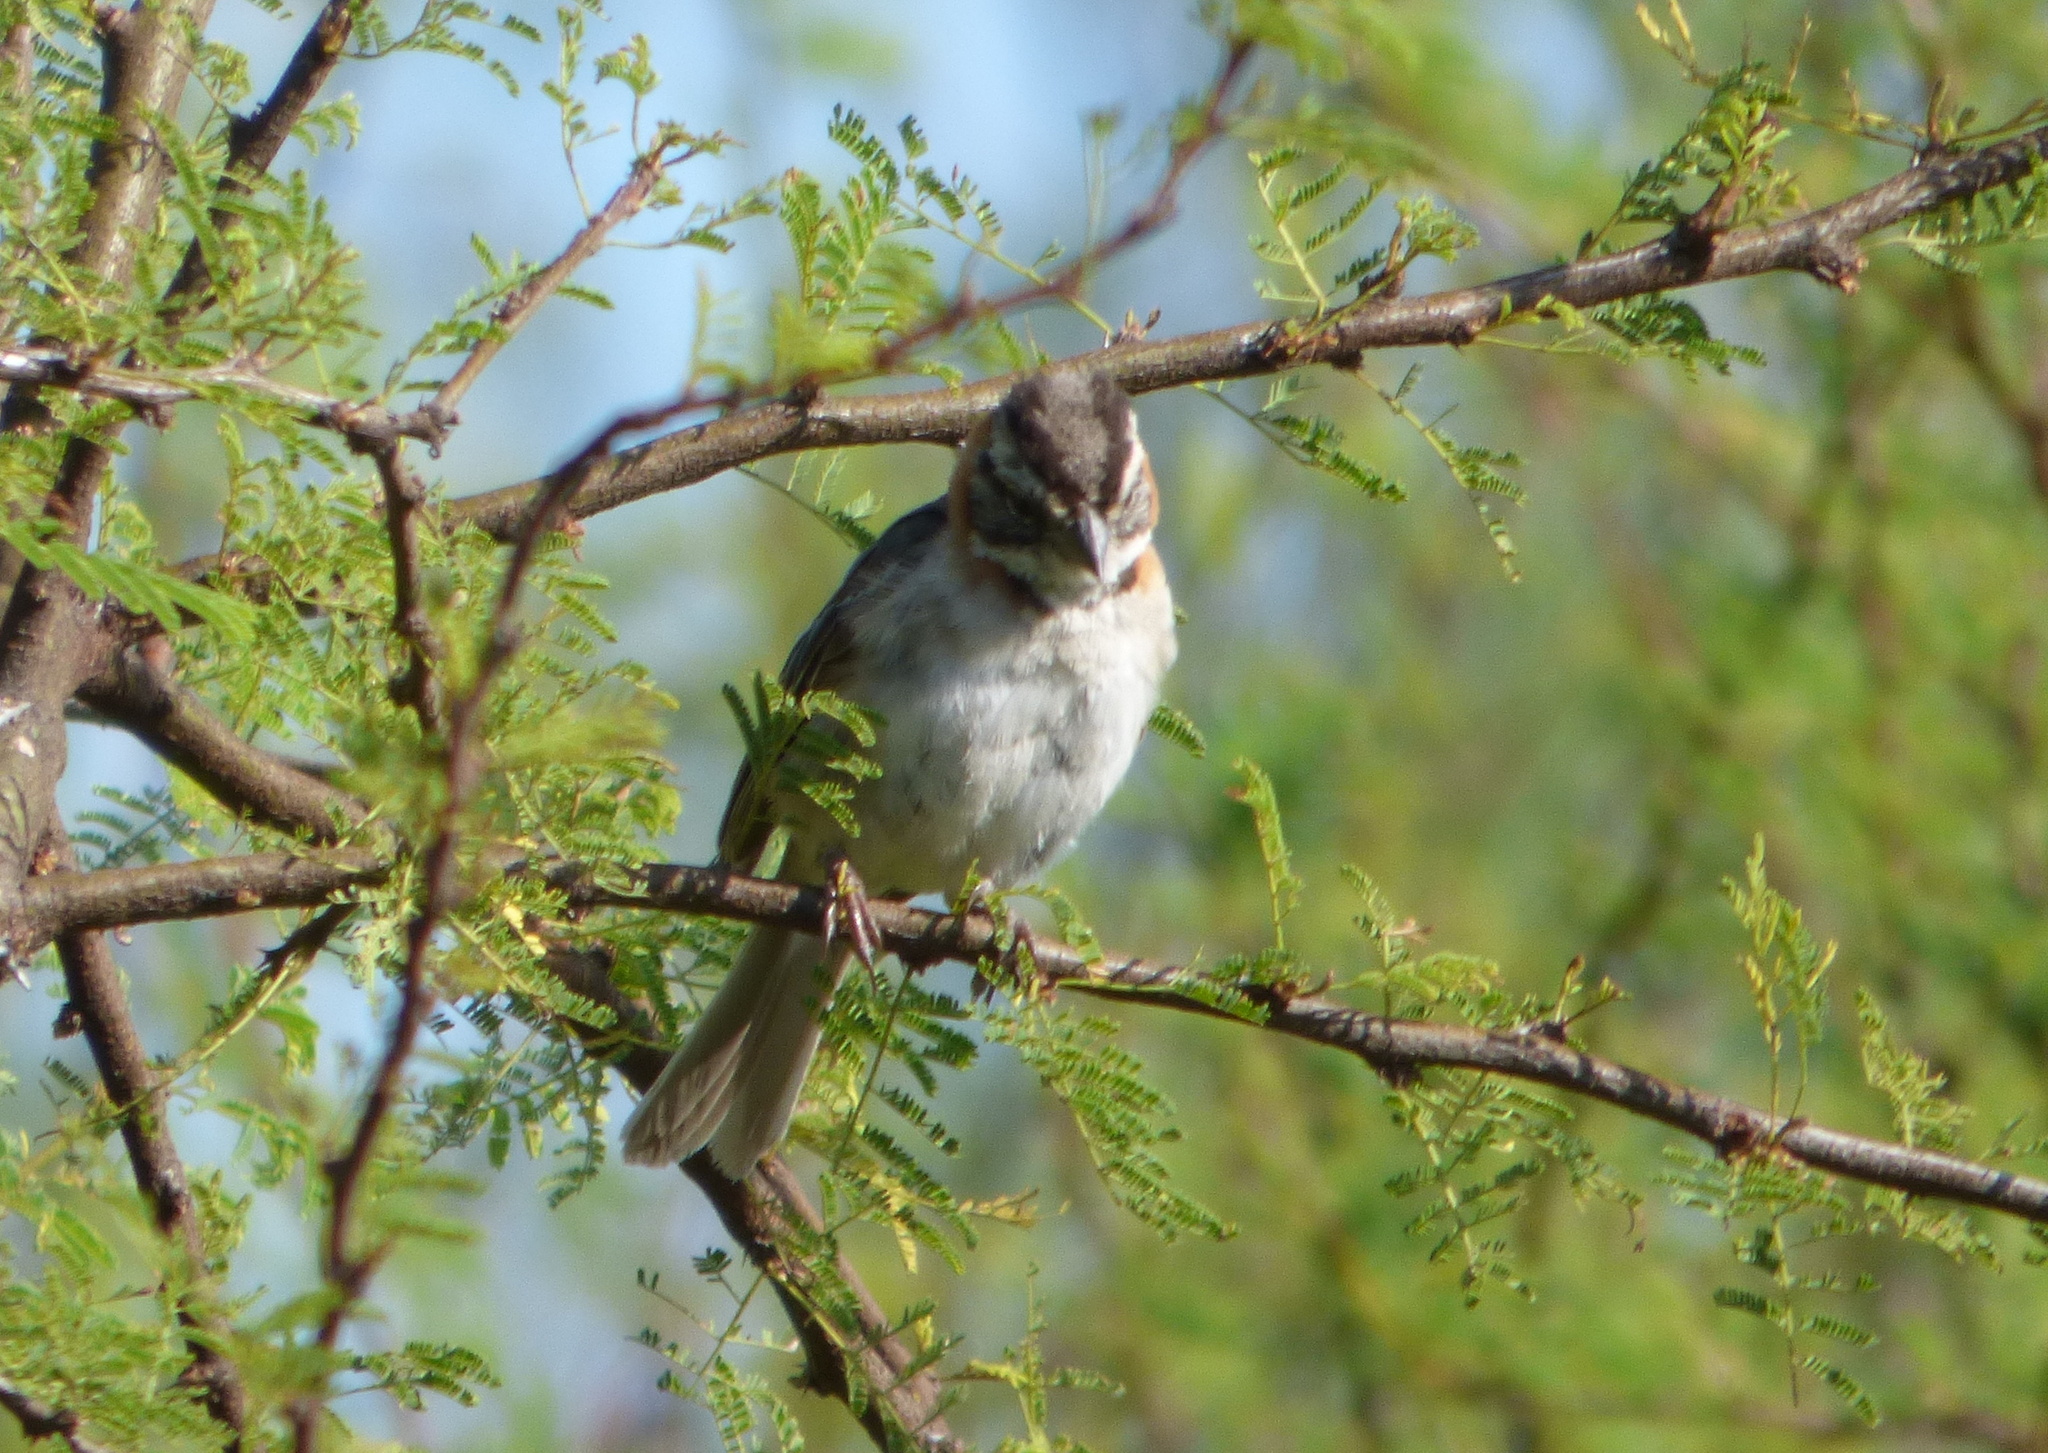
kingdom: Animalia
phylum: Chordata
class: Aves
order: Passeriformes
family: Passerellidae
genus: Zonotrichia
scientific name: Zonotrichia capensis
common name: Rufous-collared sparrow
